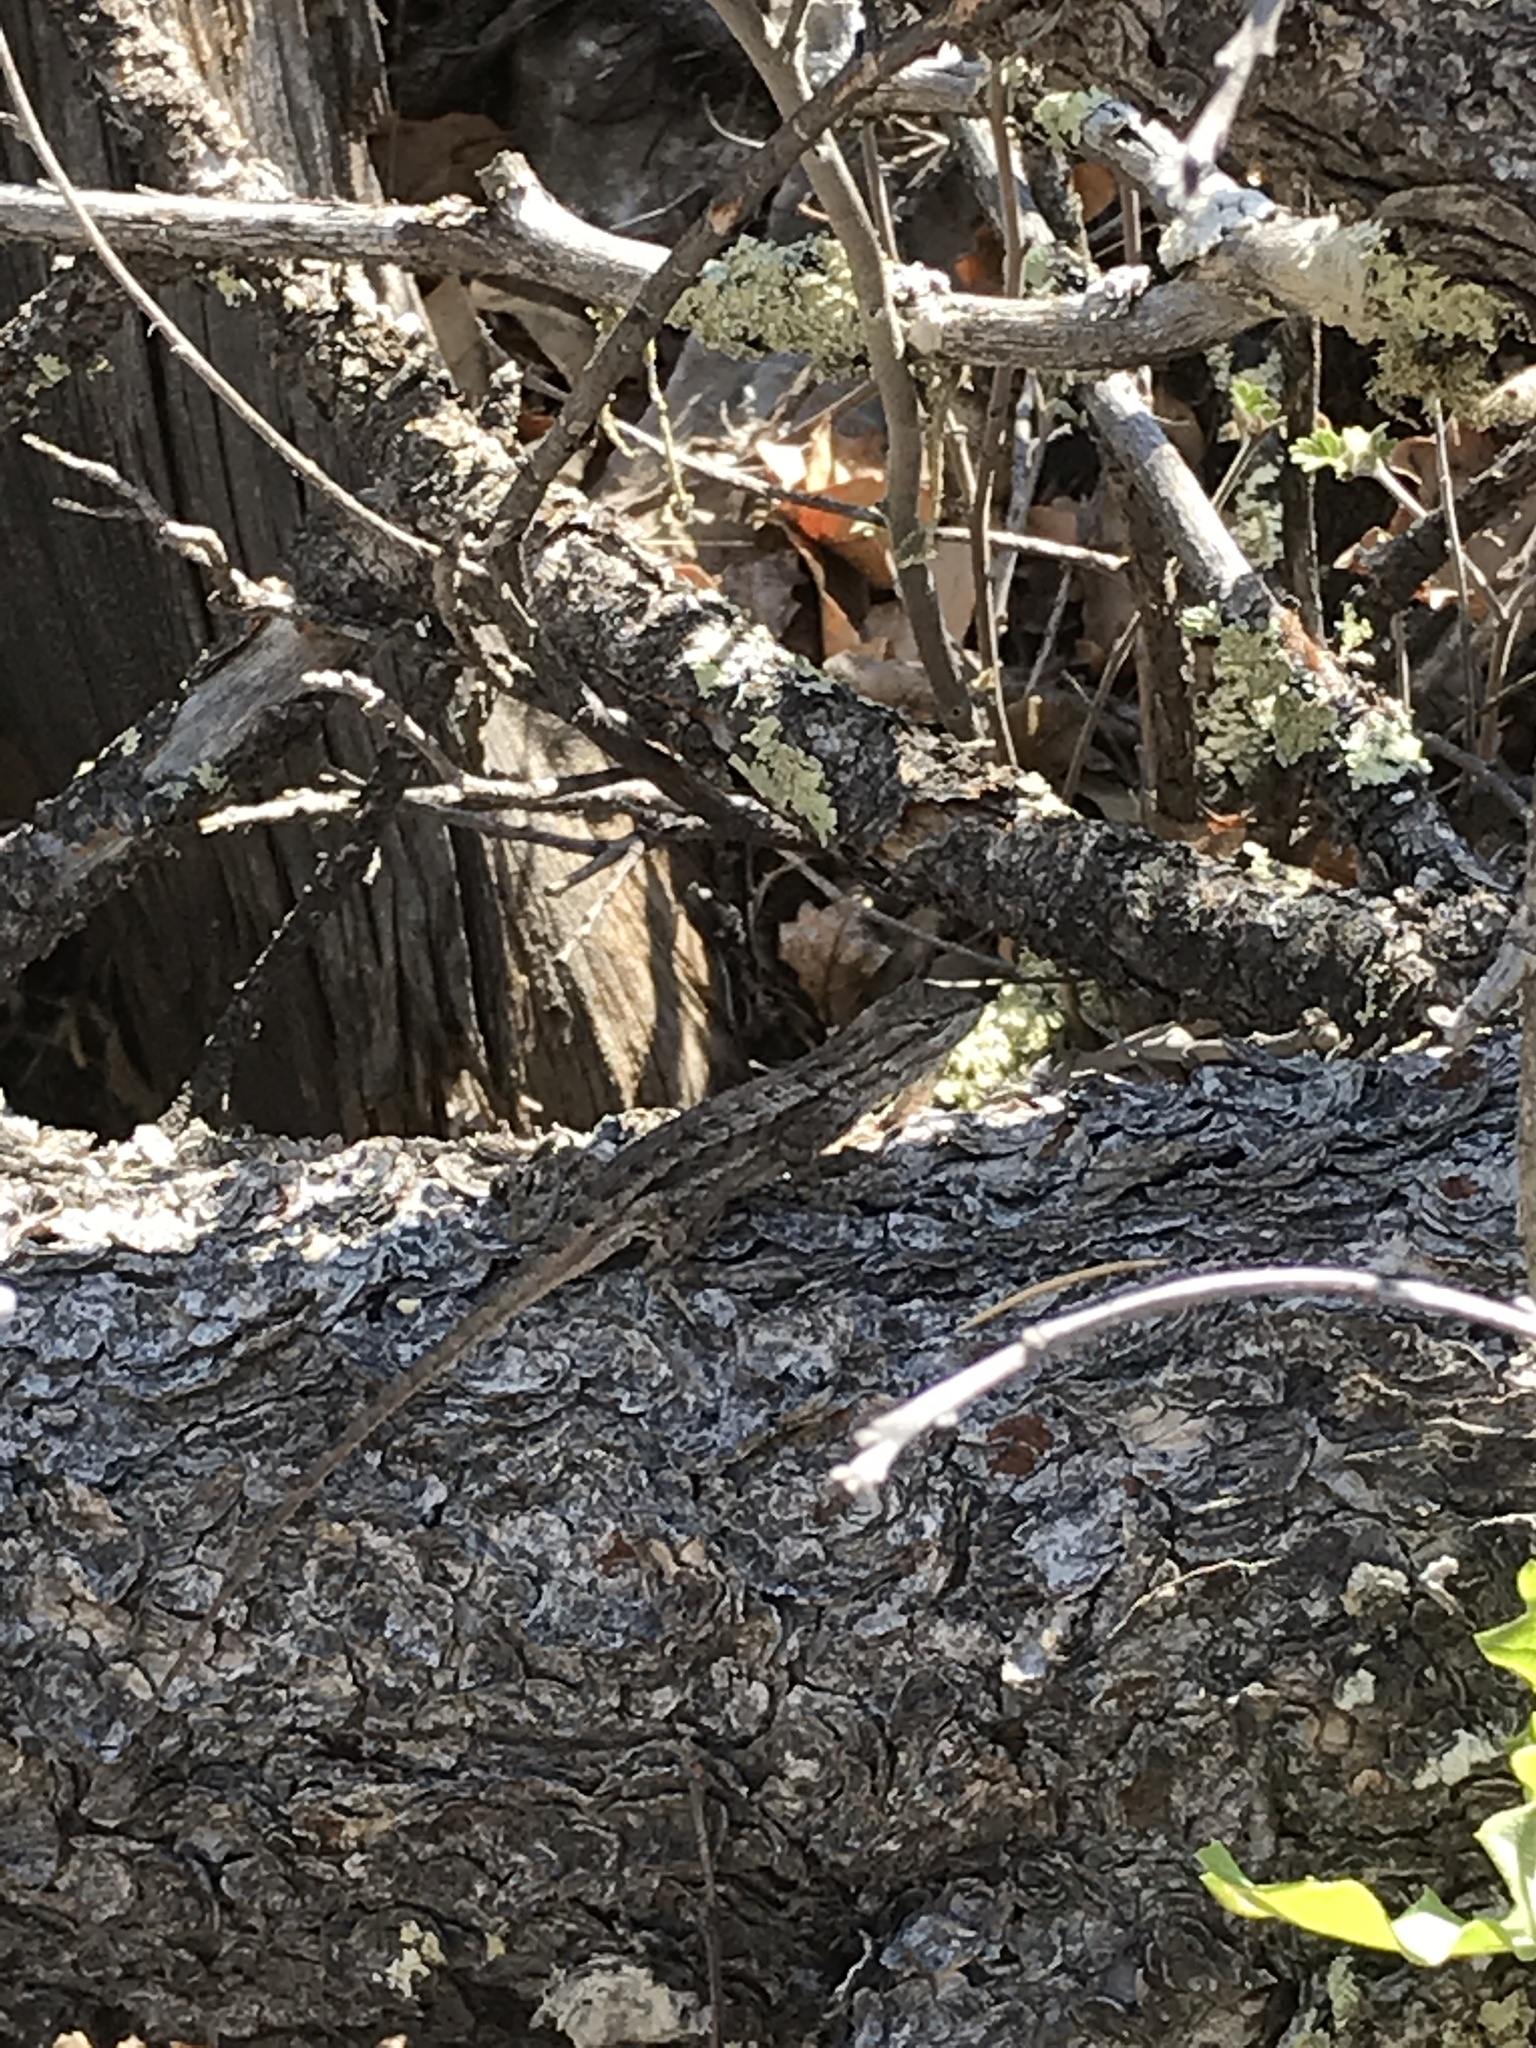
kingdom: Animalia
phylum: Chordata
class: Squamata
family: Phrynosomatidae
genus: Sceloporus
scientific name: Sceloporus cowlesi
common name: White sands prairie lizard
